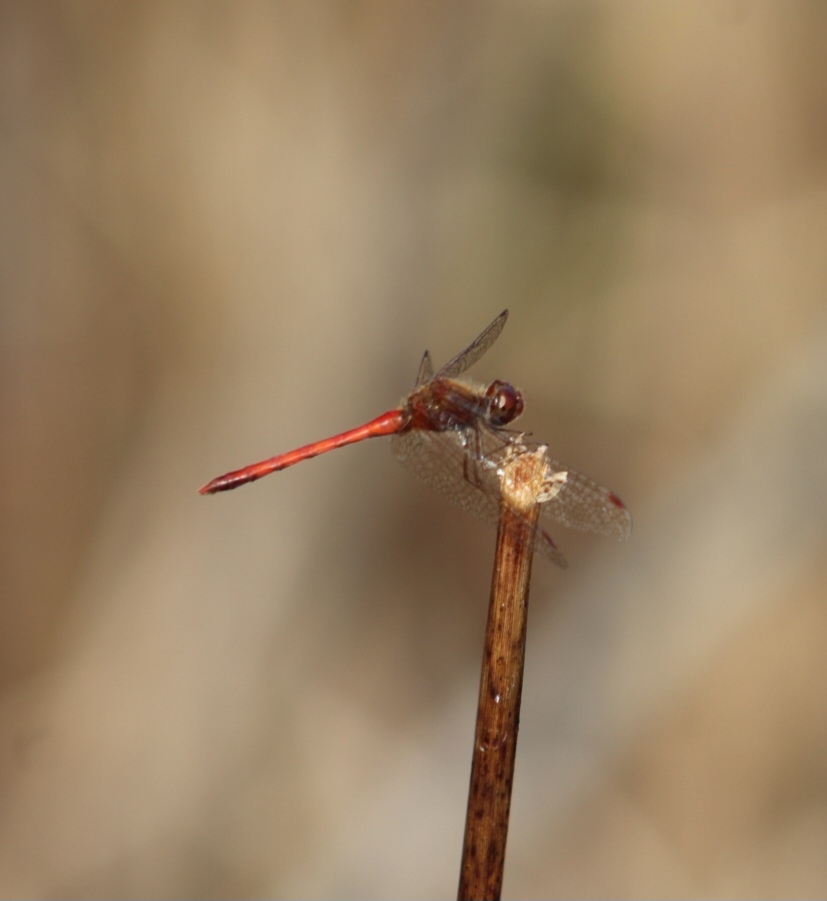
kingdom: Animalia
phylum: Arthropoda
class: Insecta
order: Odonata
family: Libellulidae
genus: Sympetrum
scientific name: Sympetrum vicinum
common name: Autumn meadowhawk
